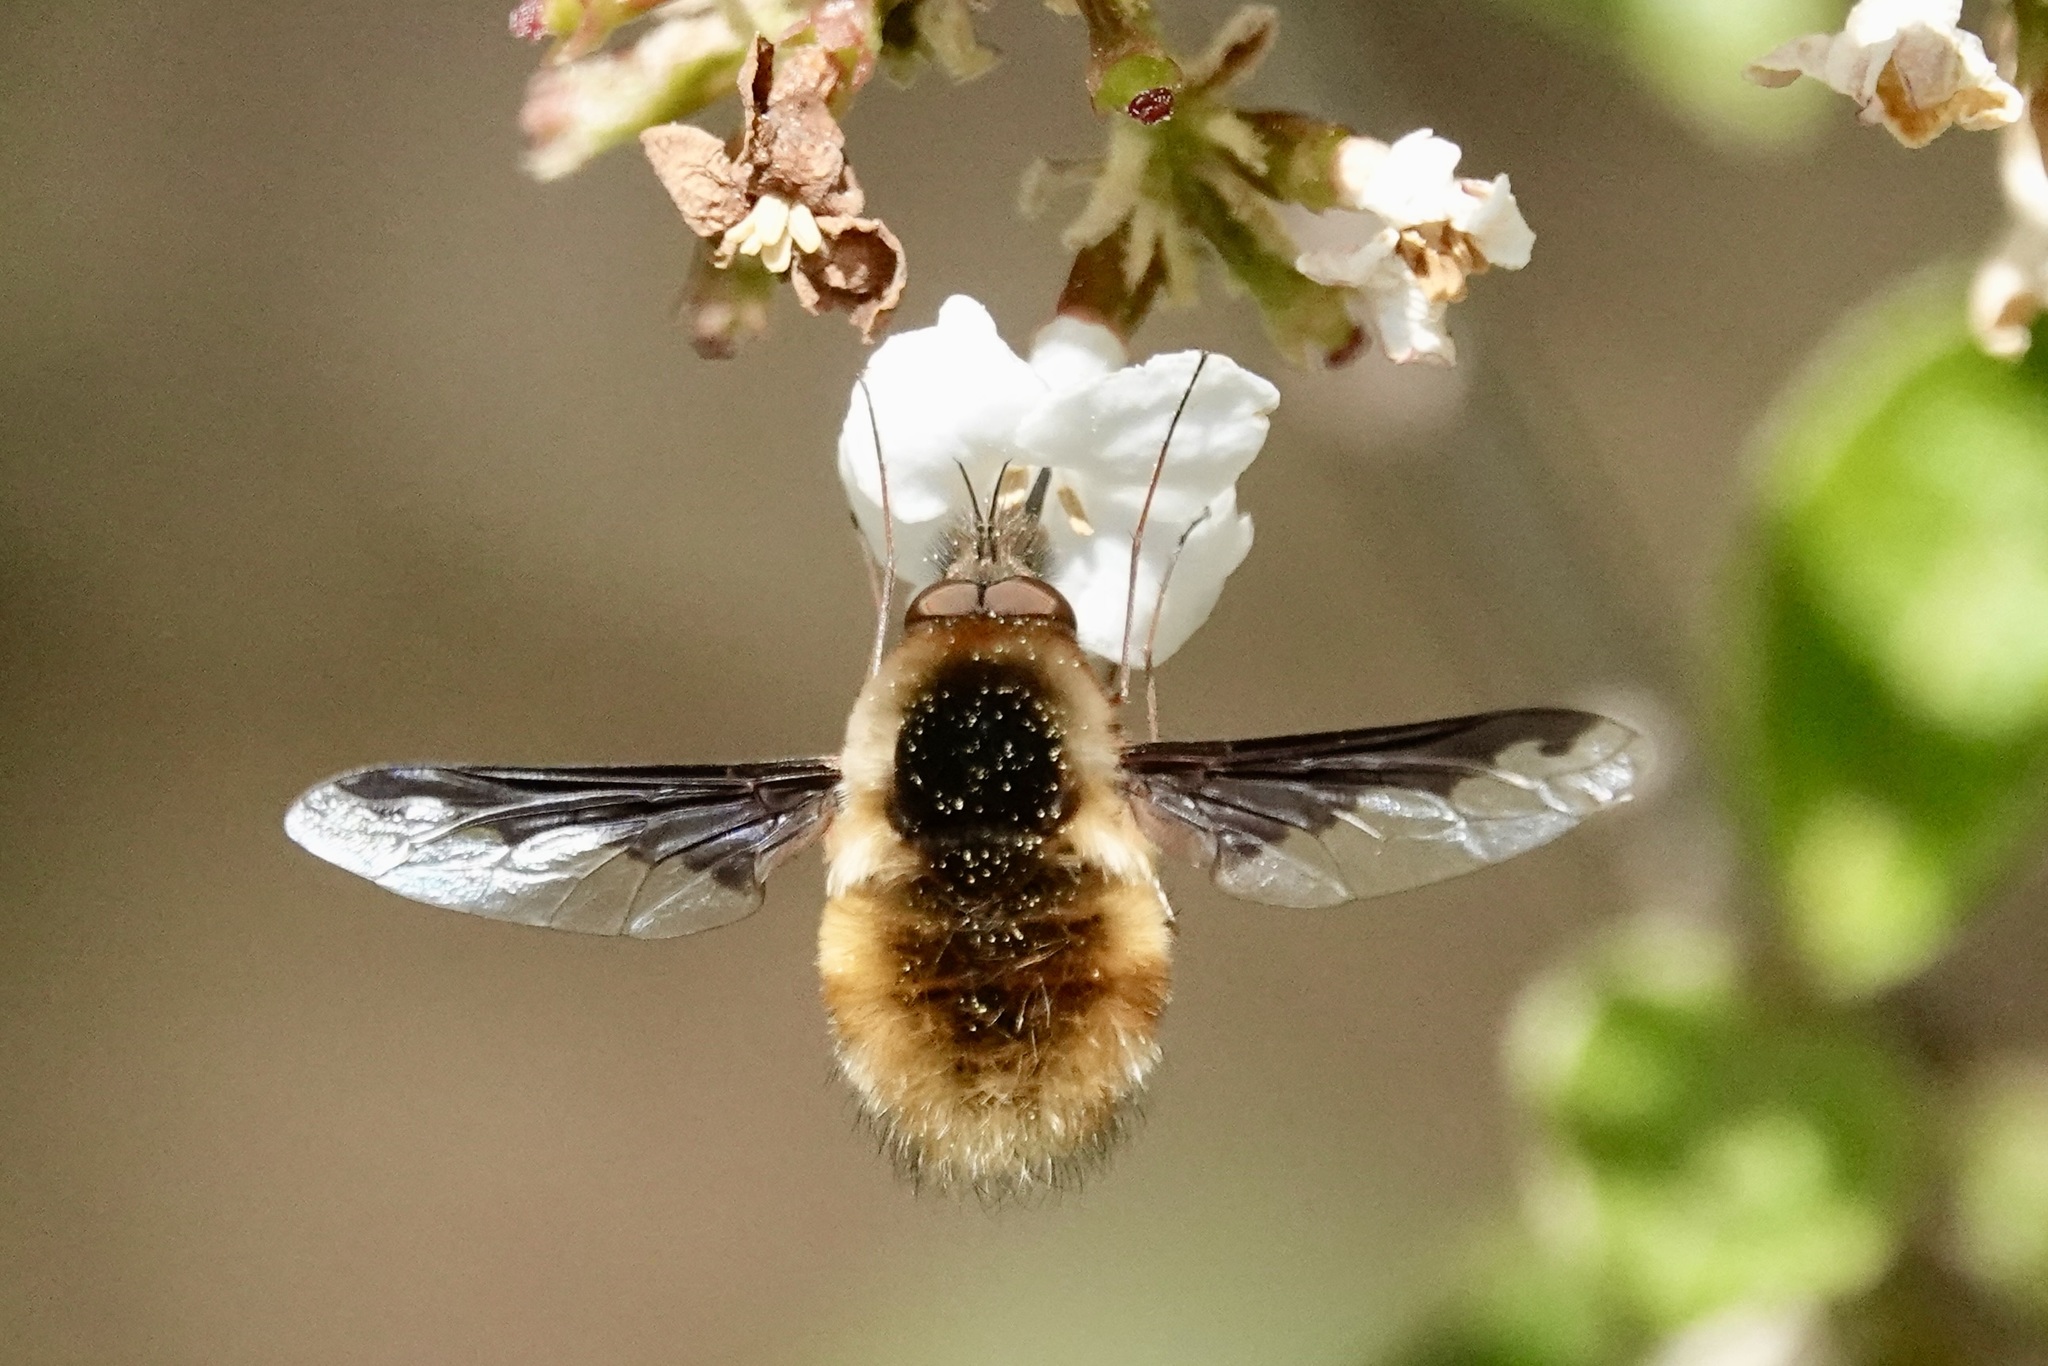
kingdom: Animalia
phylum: Arthropoda
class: Insecta
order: Diptera
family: Bombyliidae
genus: Bombylius
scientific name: Bombylius major
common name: Bee fly
